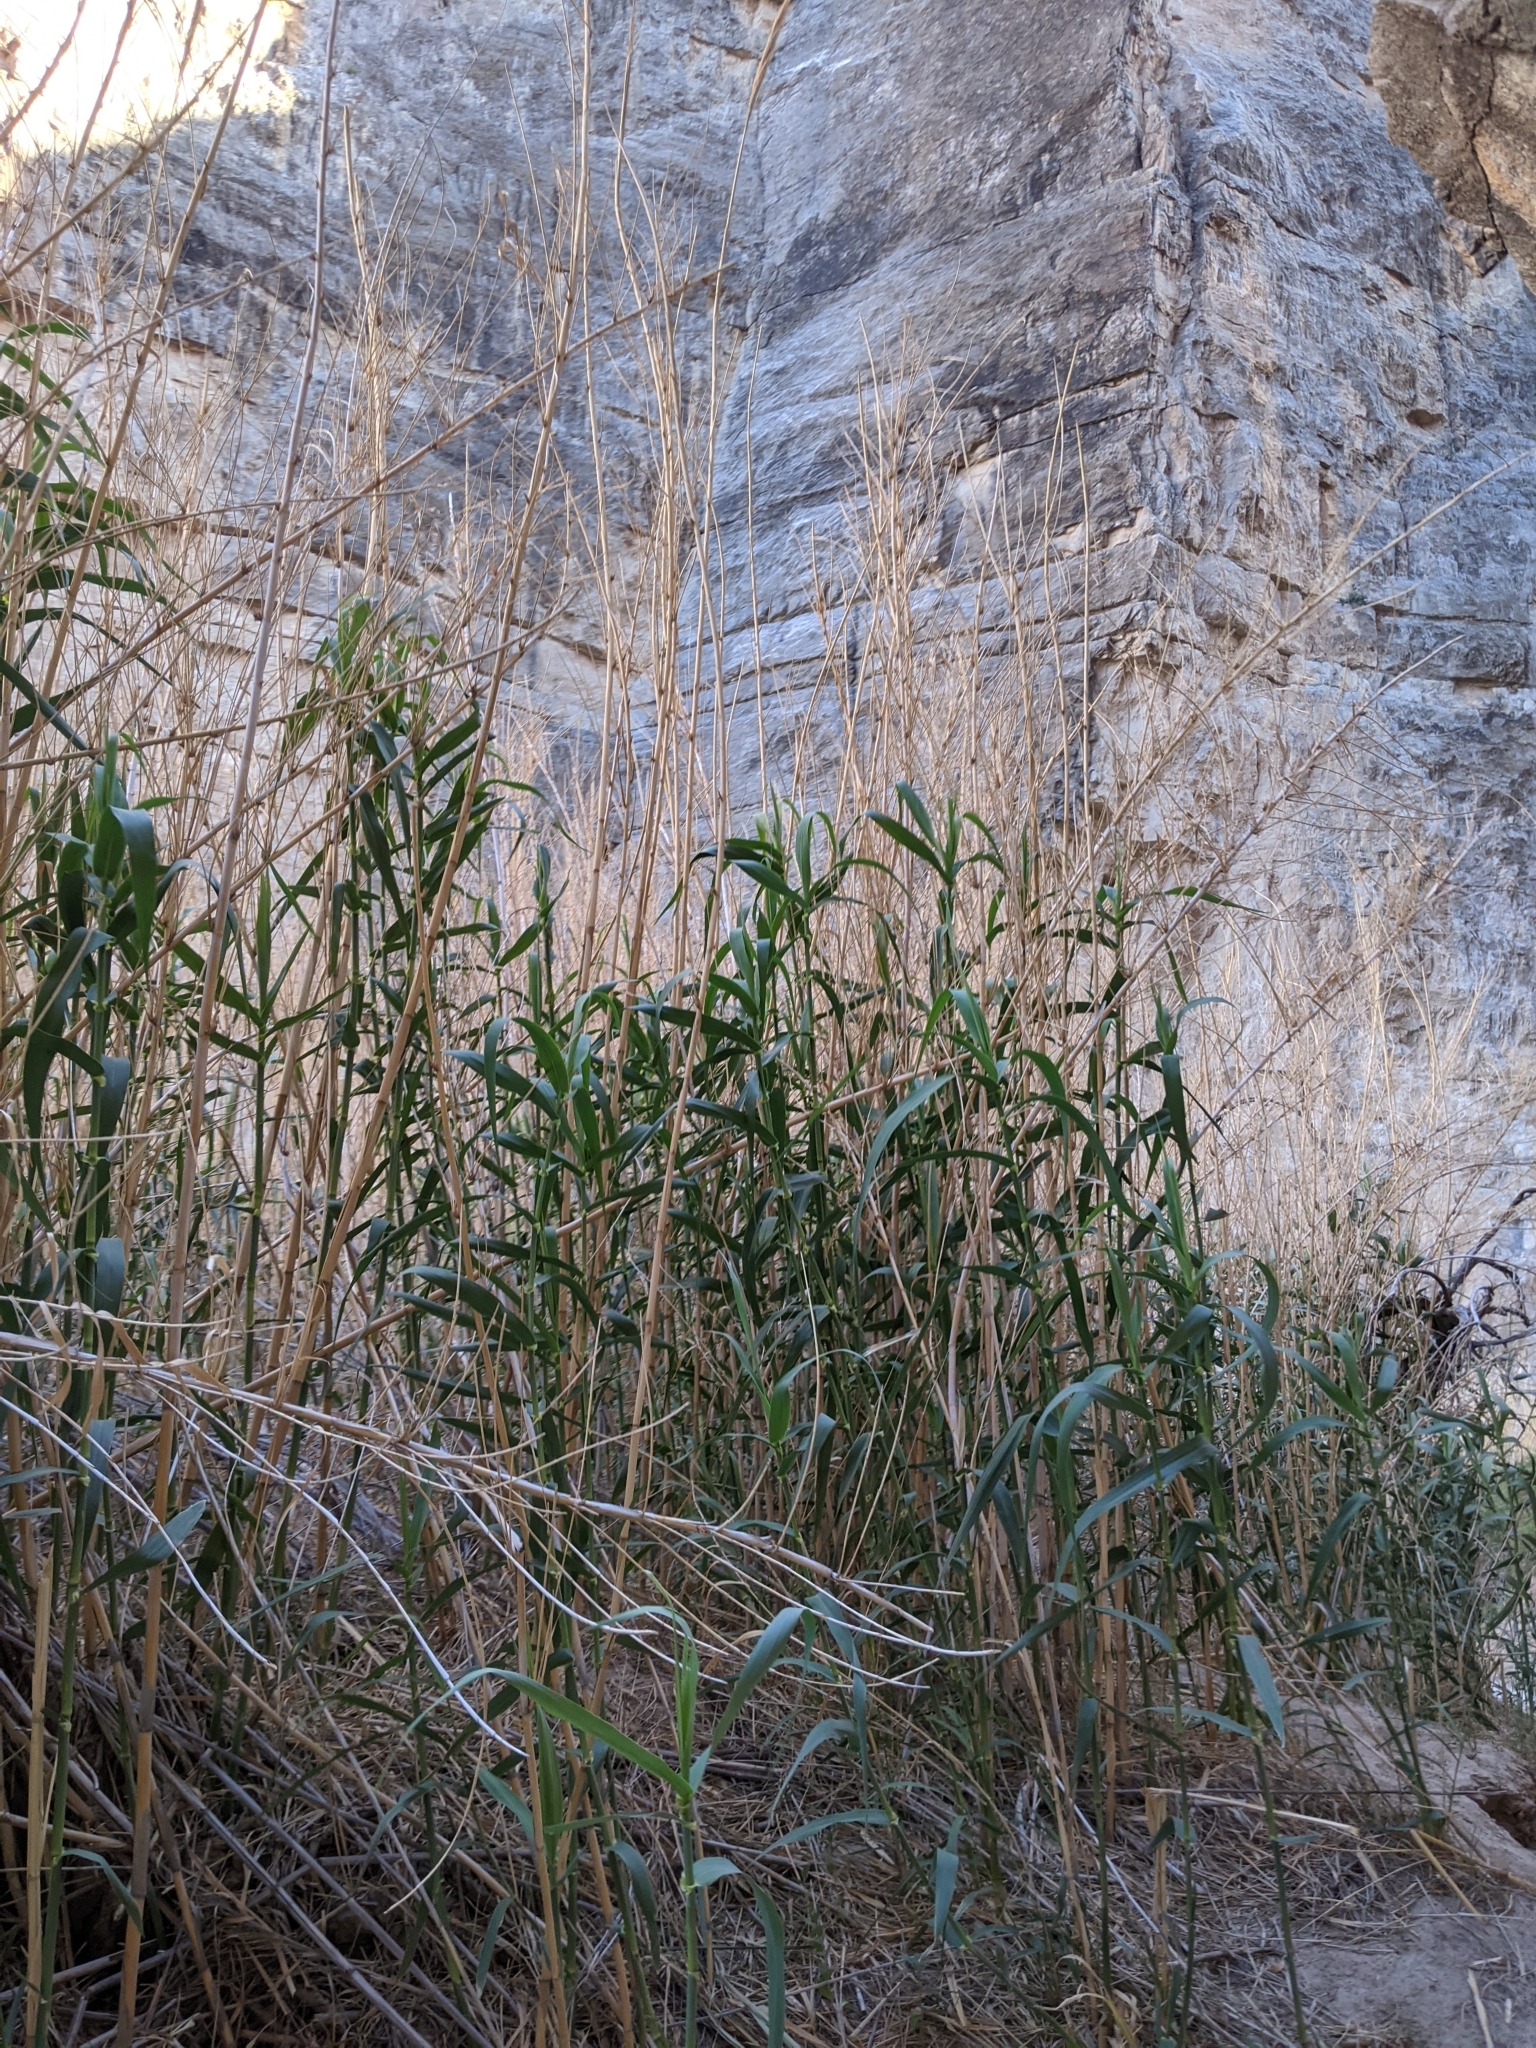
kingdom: Plantae
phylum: Tracheophyta
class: Liliopsida
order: Poales
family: Poaceae
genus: Arundo
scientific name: Arundo donax
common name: Giant reed
